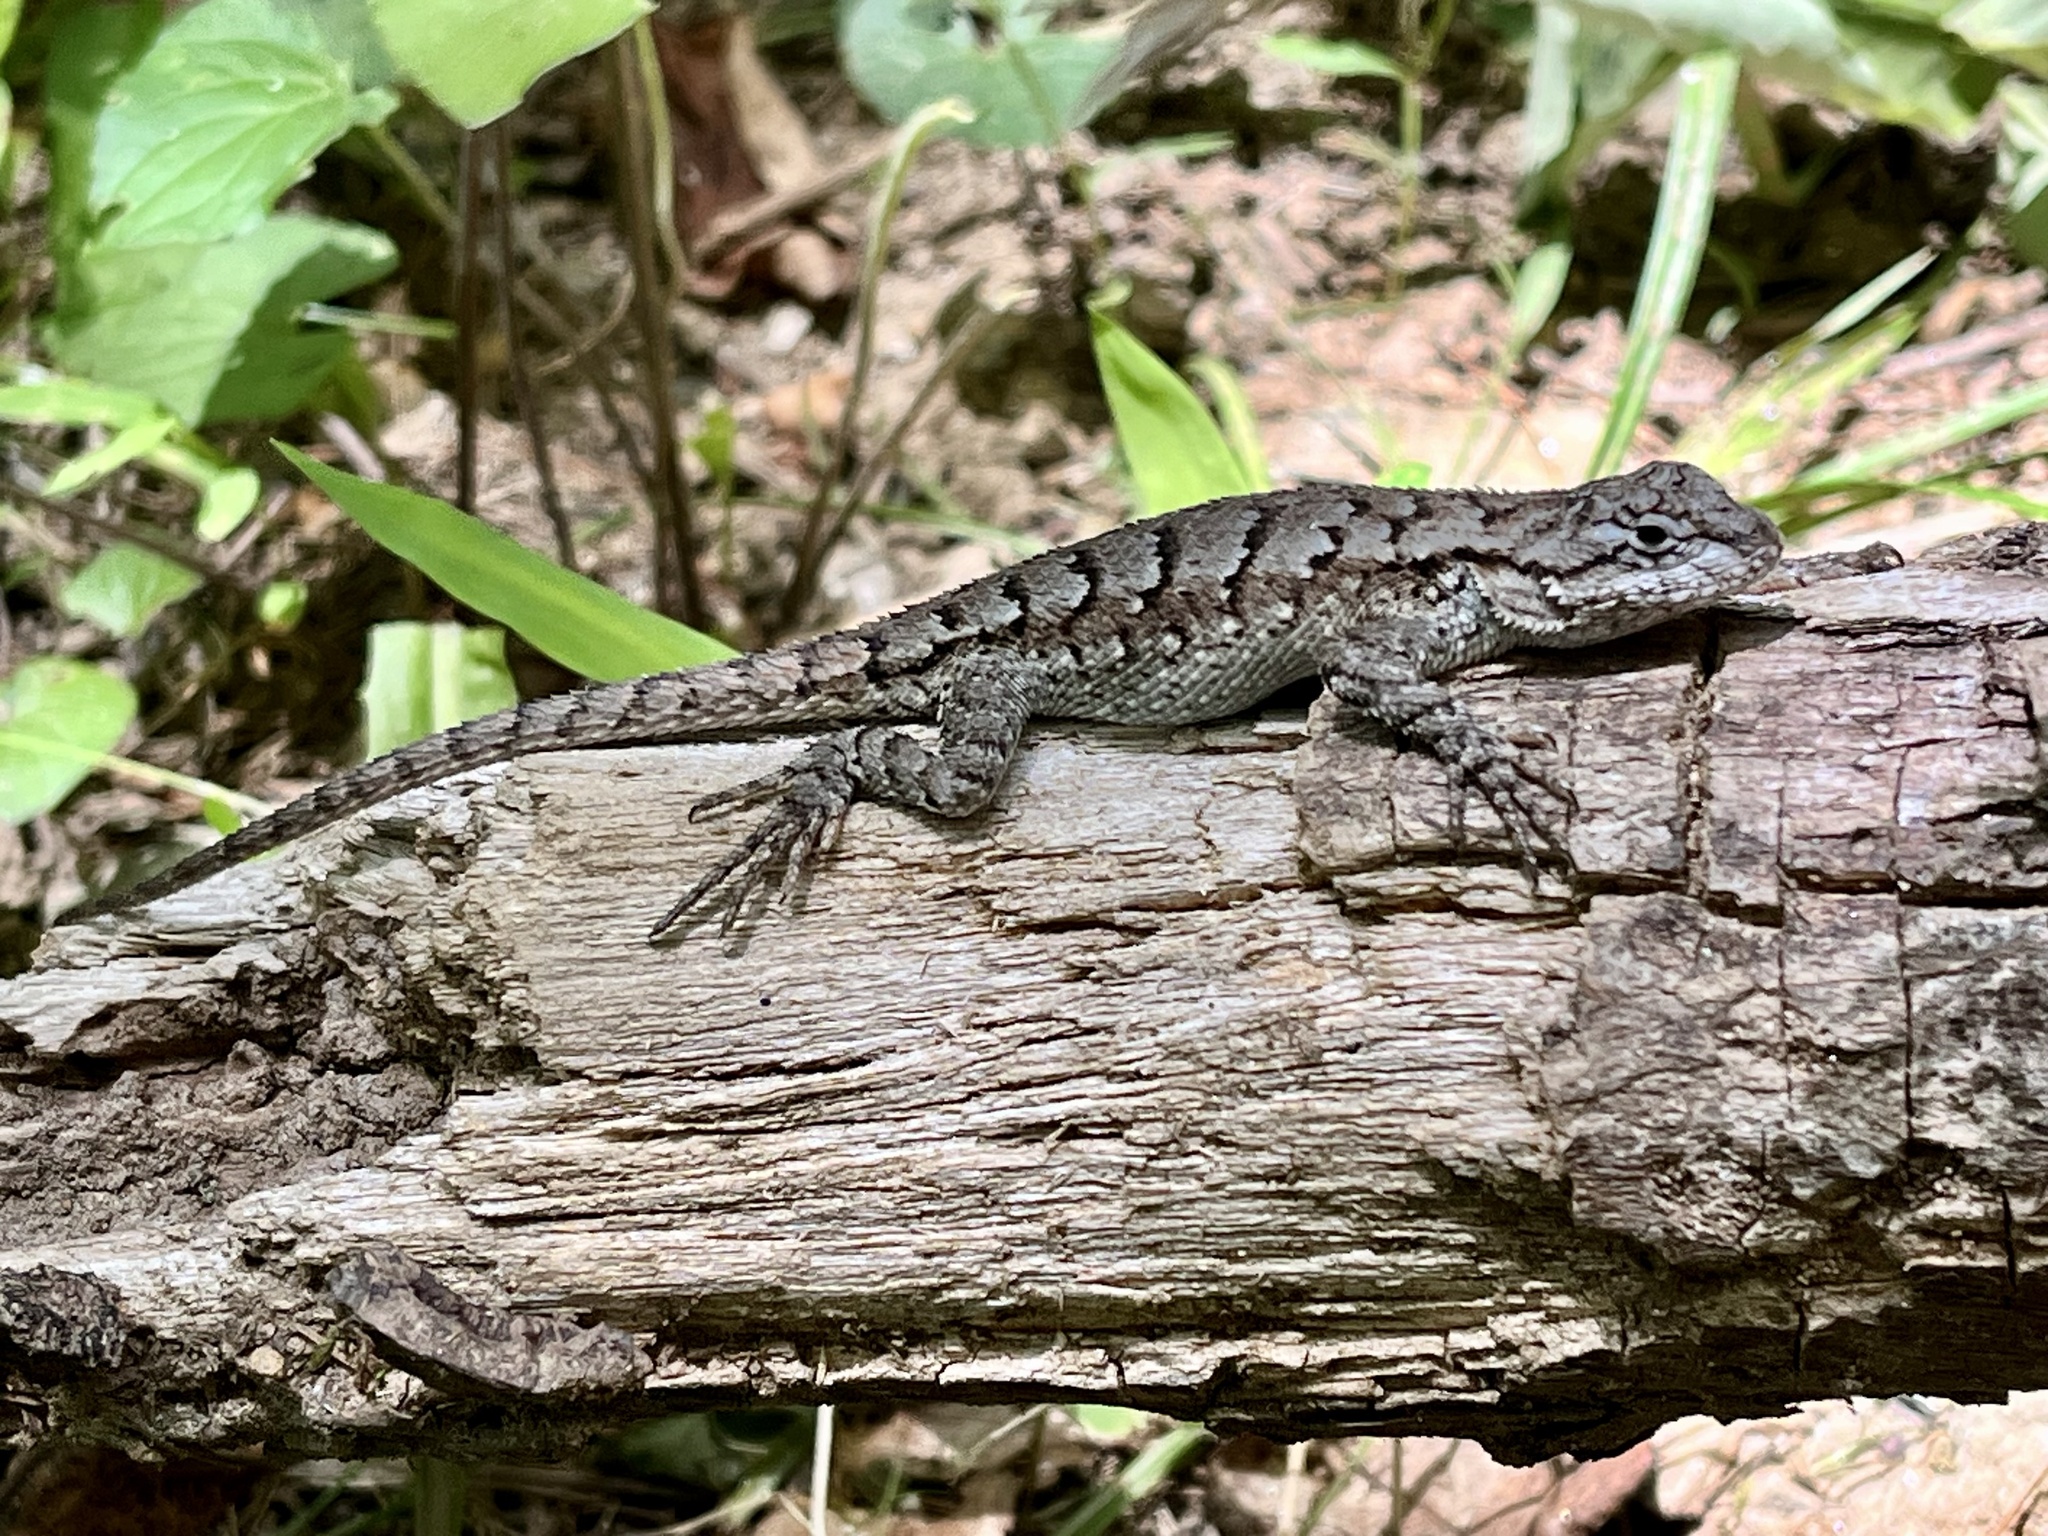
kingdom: Animalia
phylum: Chordata
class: Squamata
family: Phrynosomatidae
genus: Sceloporus
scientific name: Sceloporus undulatus
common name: Eastern fence lizard
